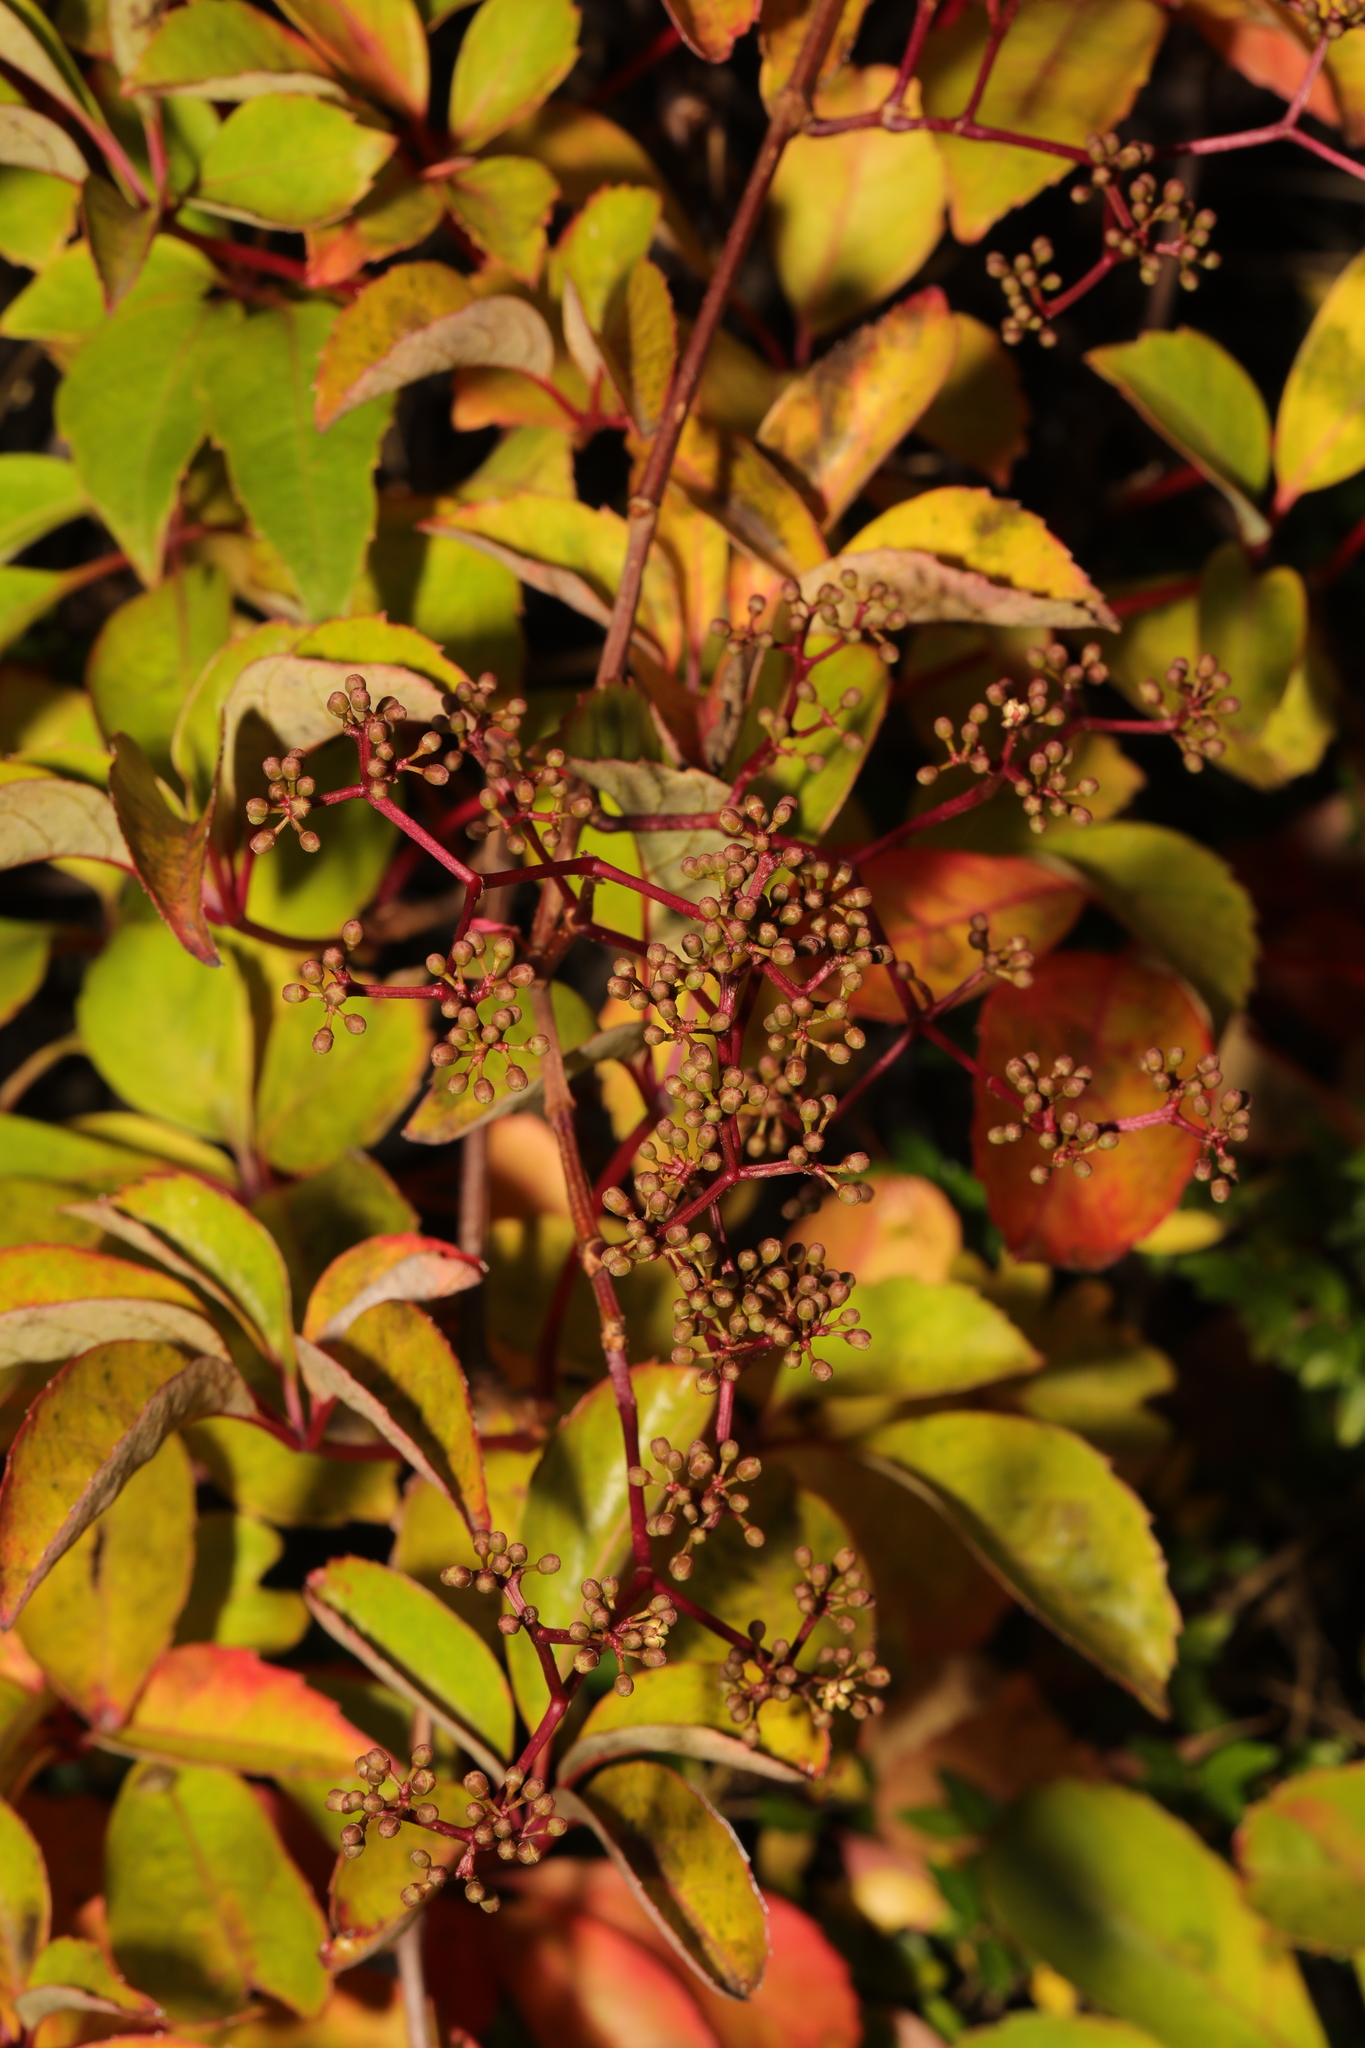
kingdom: Plantae
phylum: Tracheophyta
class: Magnoliopsida
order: Vitales
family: Vitaceae
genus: Parthenocissus
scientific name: Parthenocissus quinquefolia
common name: Virginia-creeper
